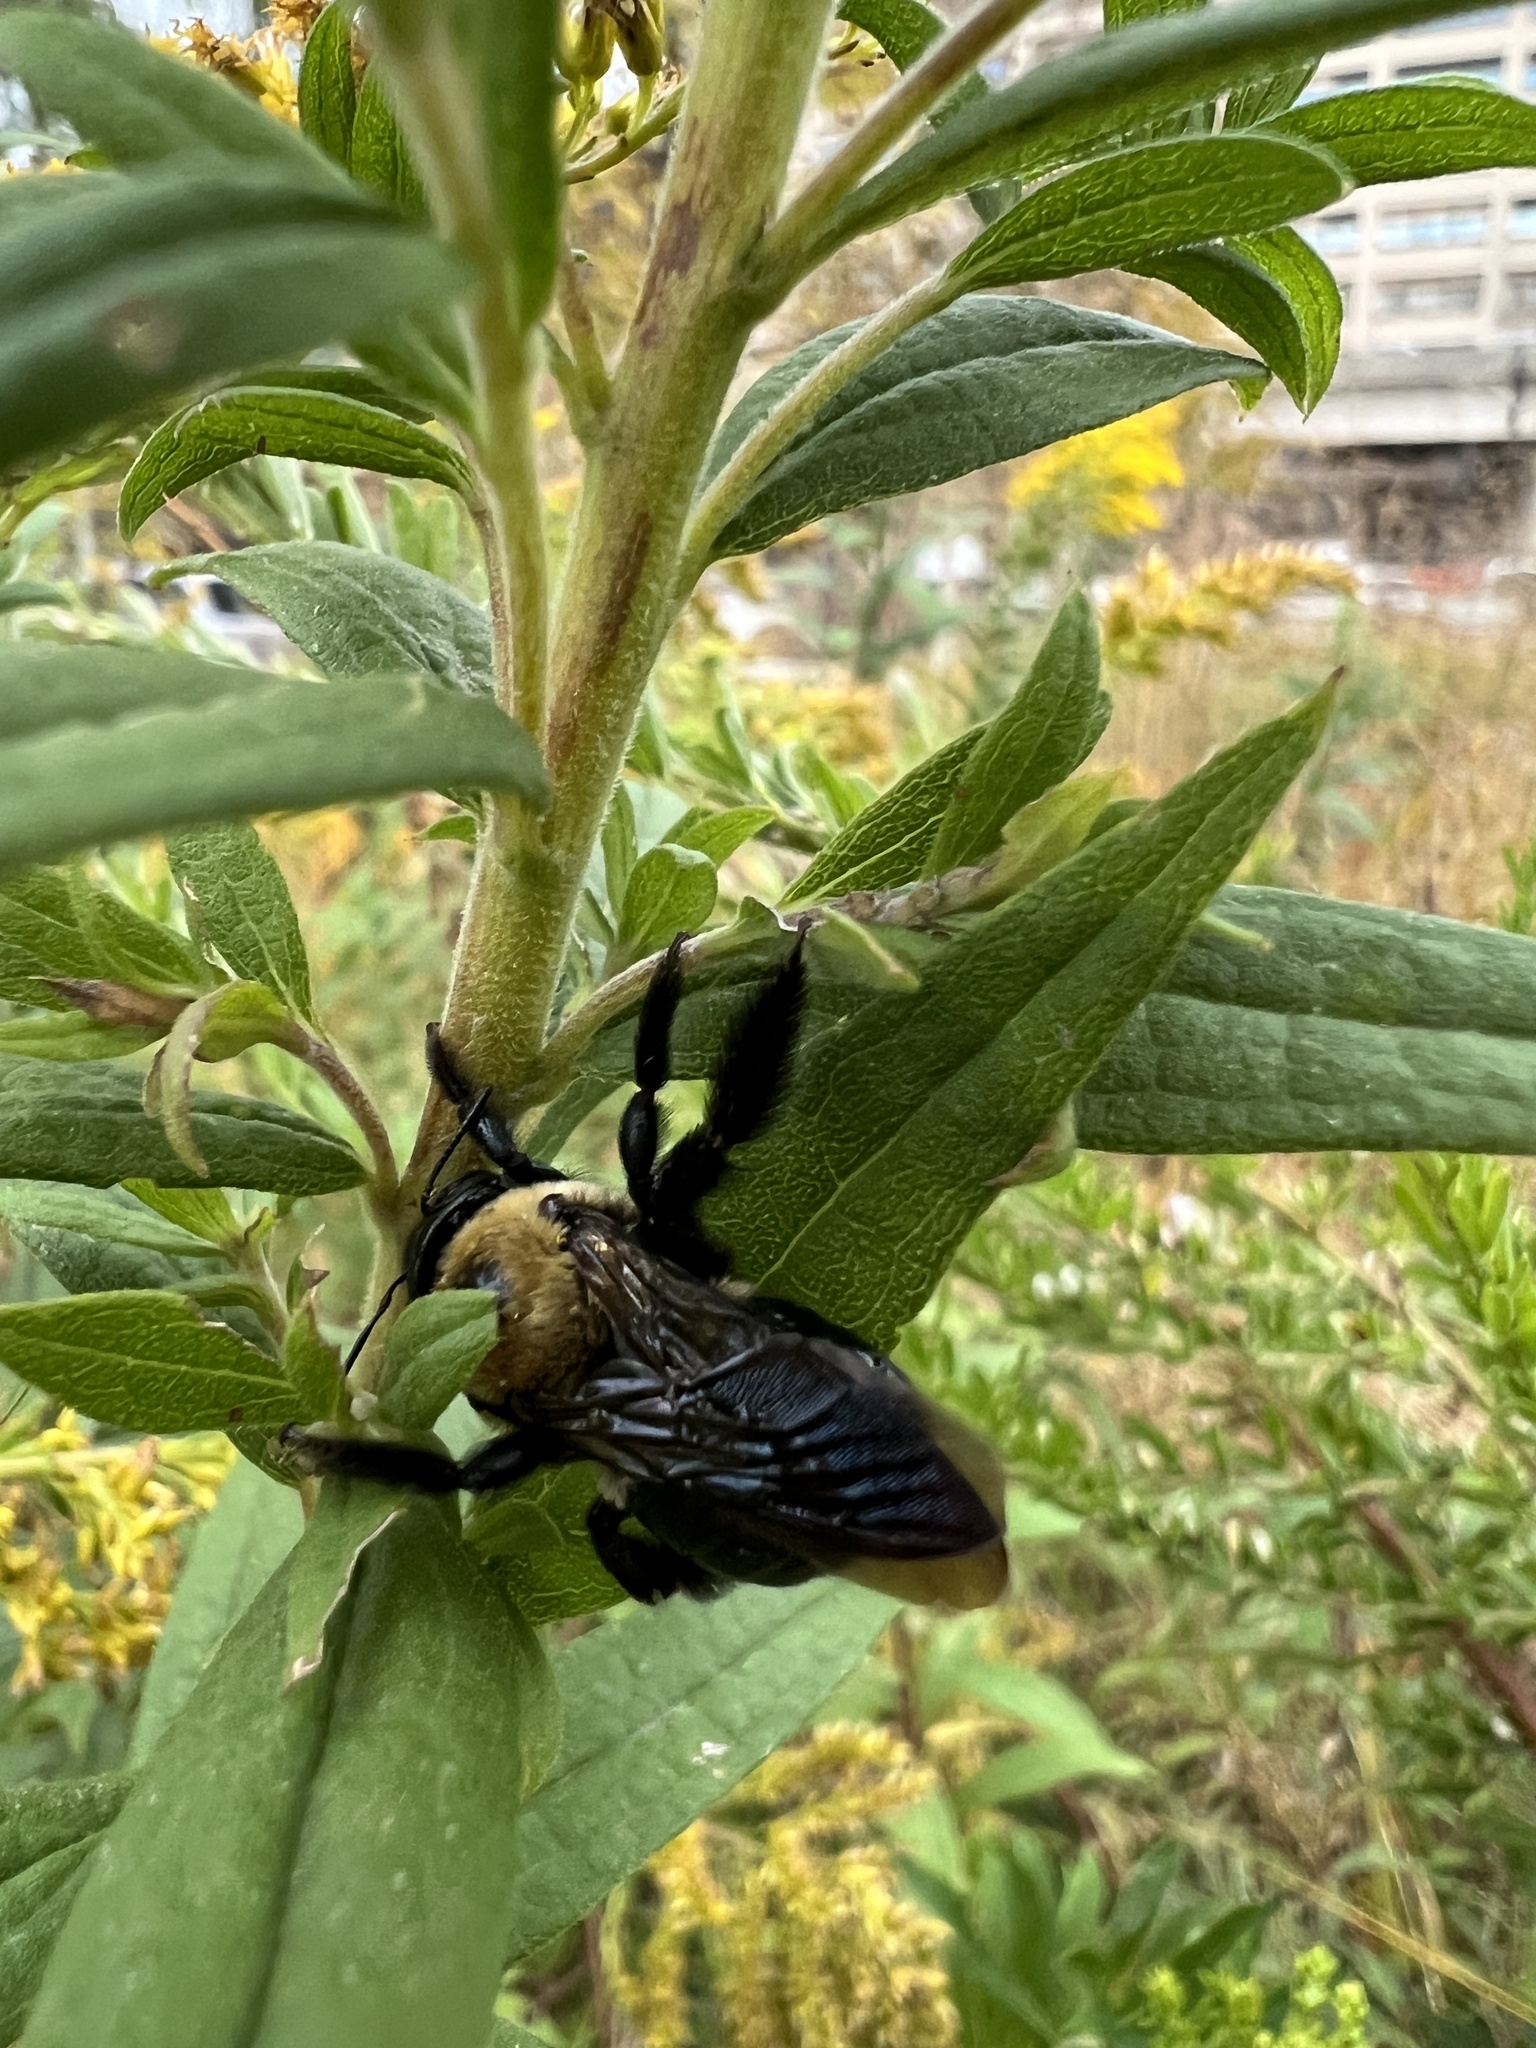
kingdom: Animalia
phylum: Arthropoda
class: Insecta
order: Hymenoptera
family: Apidae
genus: Xylocopa
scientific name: Xylocopa virginica
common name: Carpenter bee
